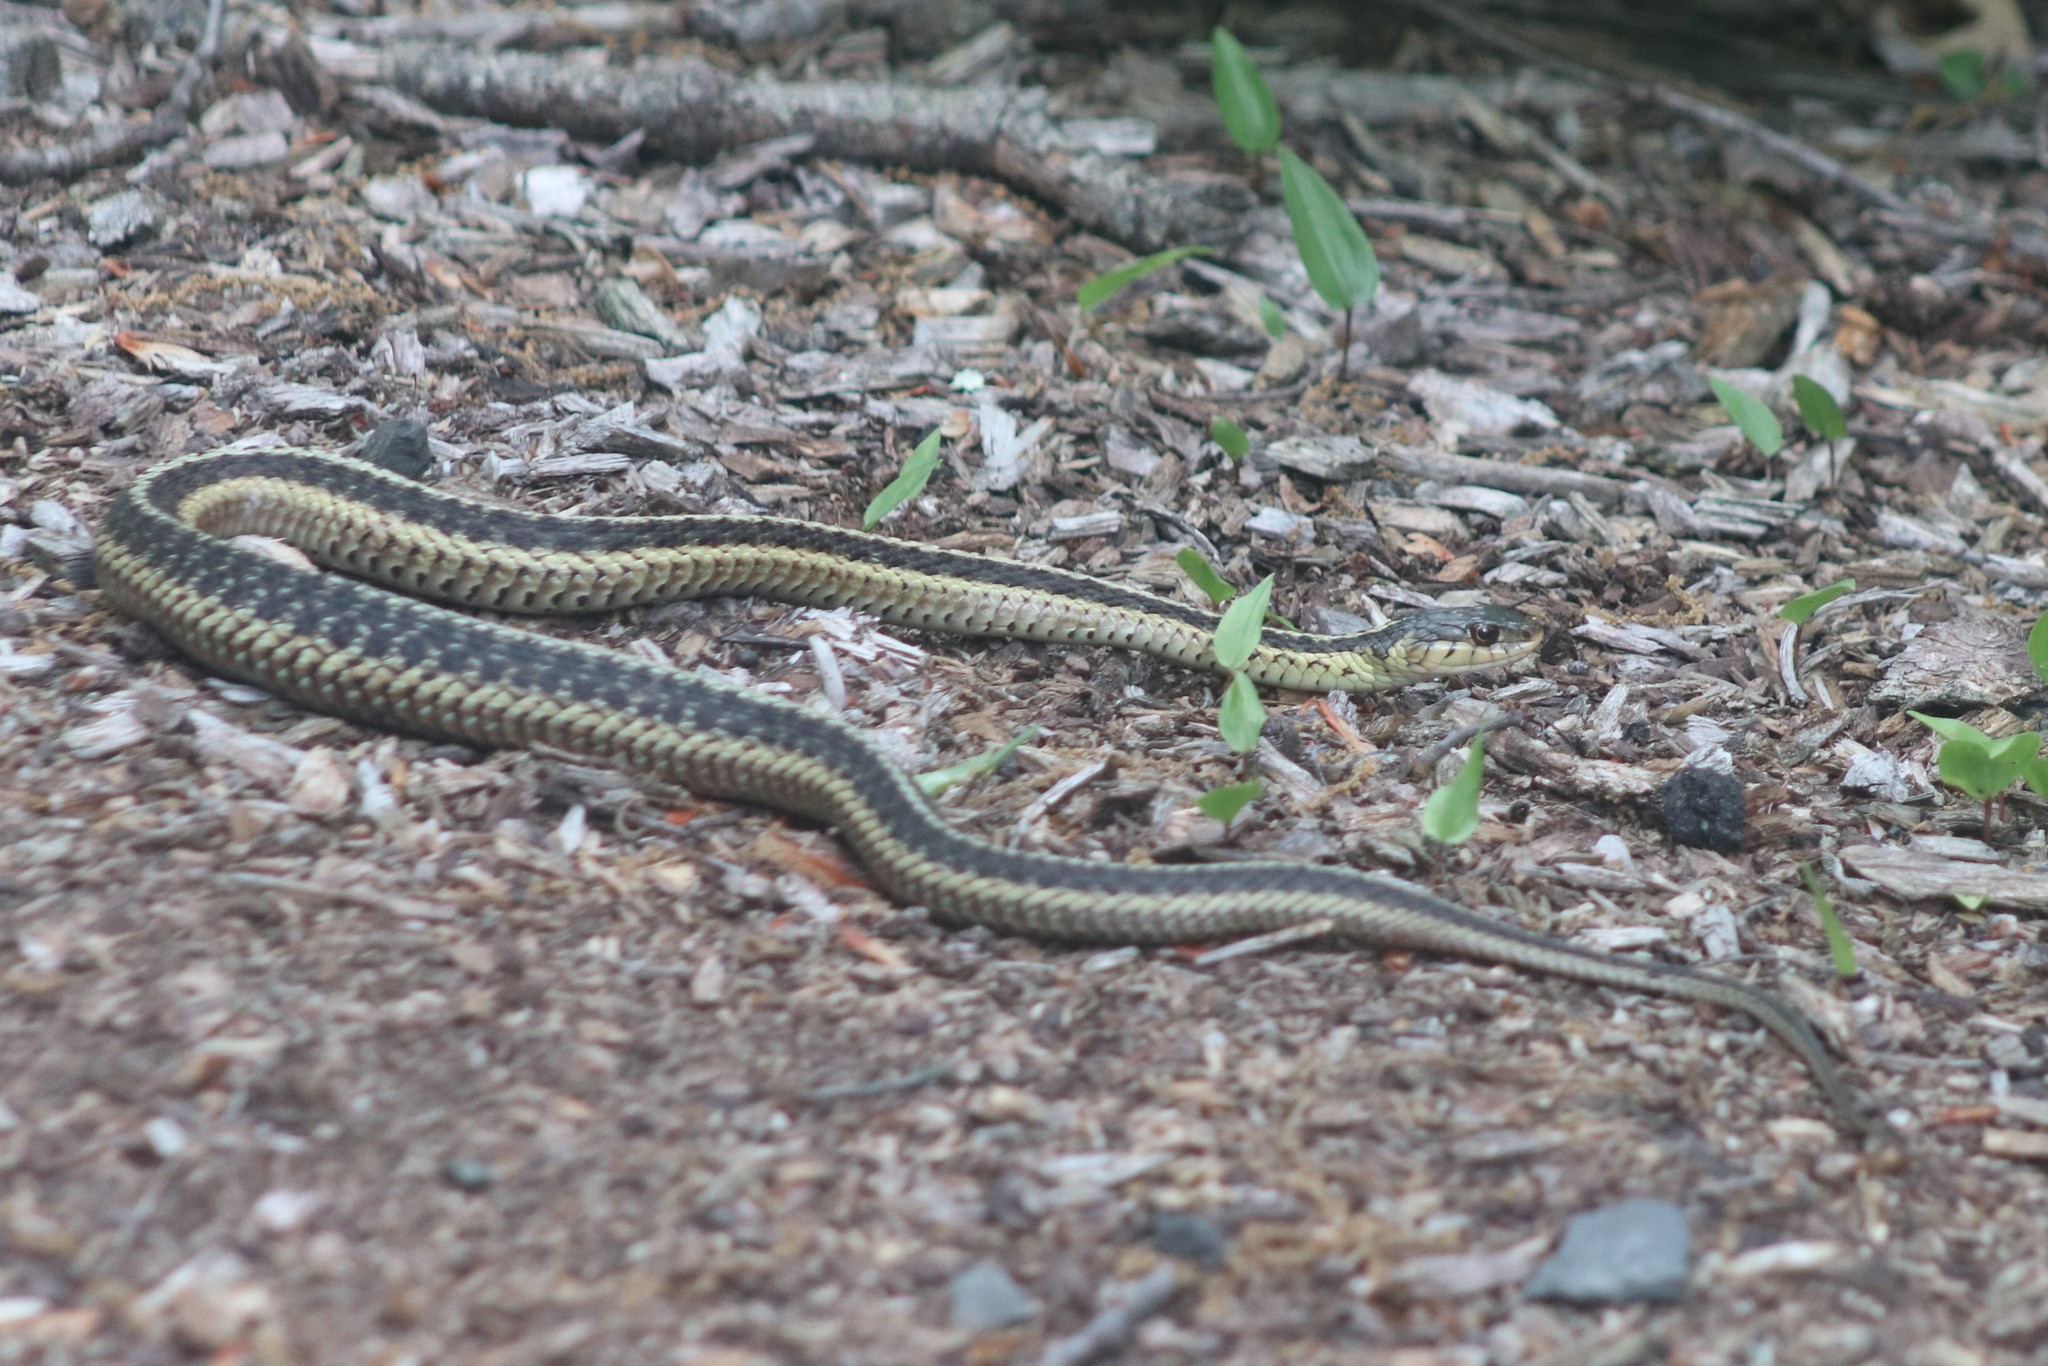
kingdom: Animalia
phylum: Chordata
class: Squamata
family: Colubridae
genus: Thamnophis
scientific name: Thamnophis sirtalis
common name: Common garter snake
